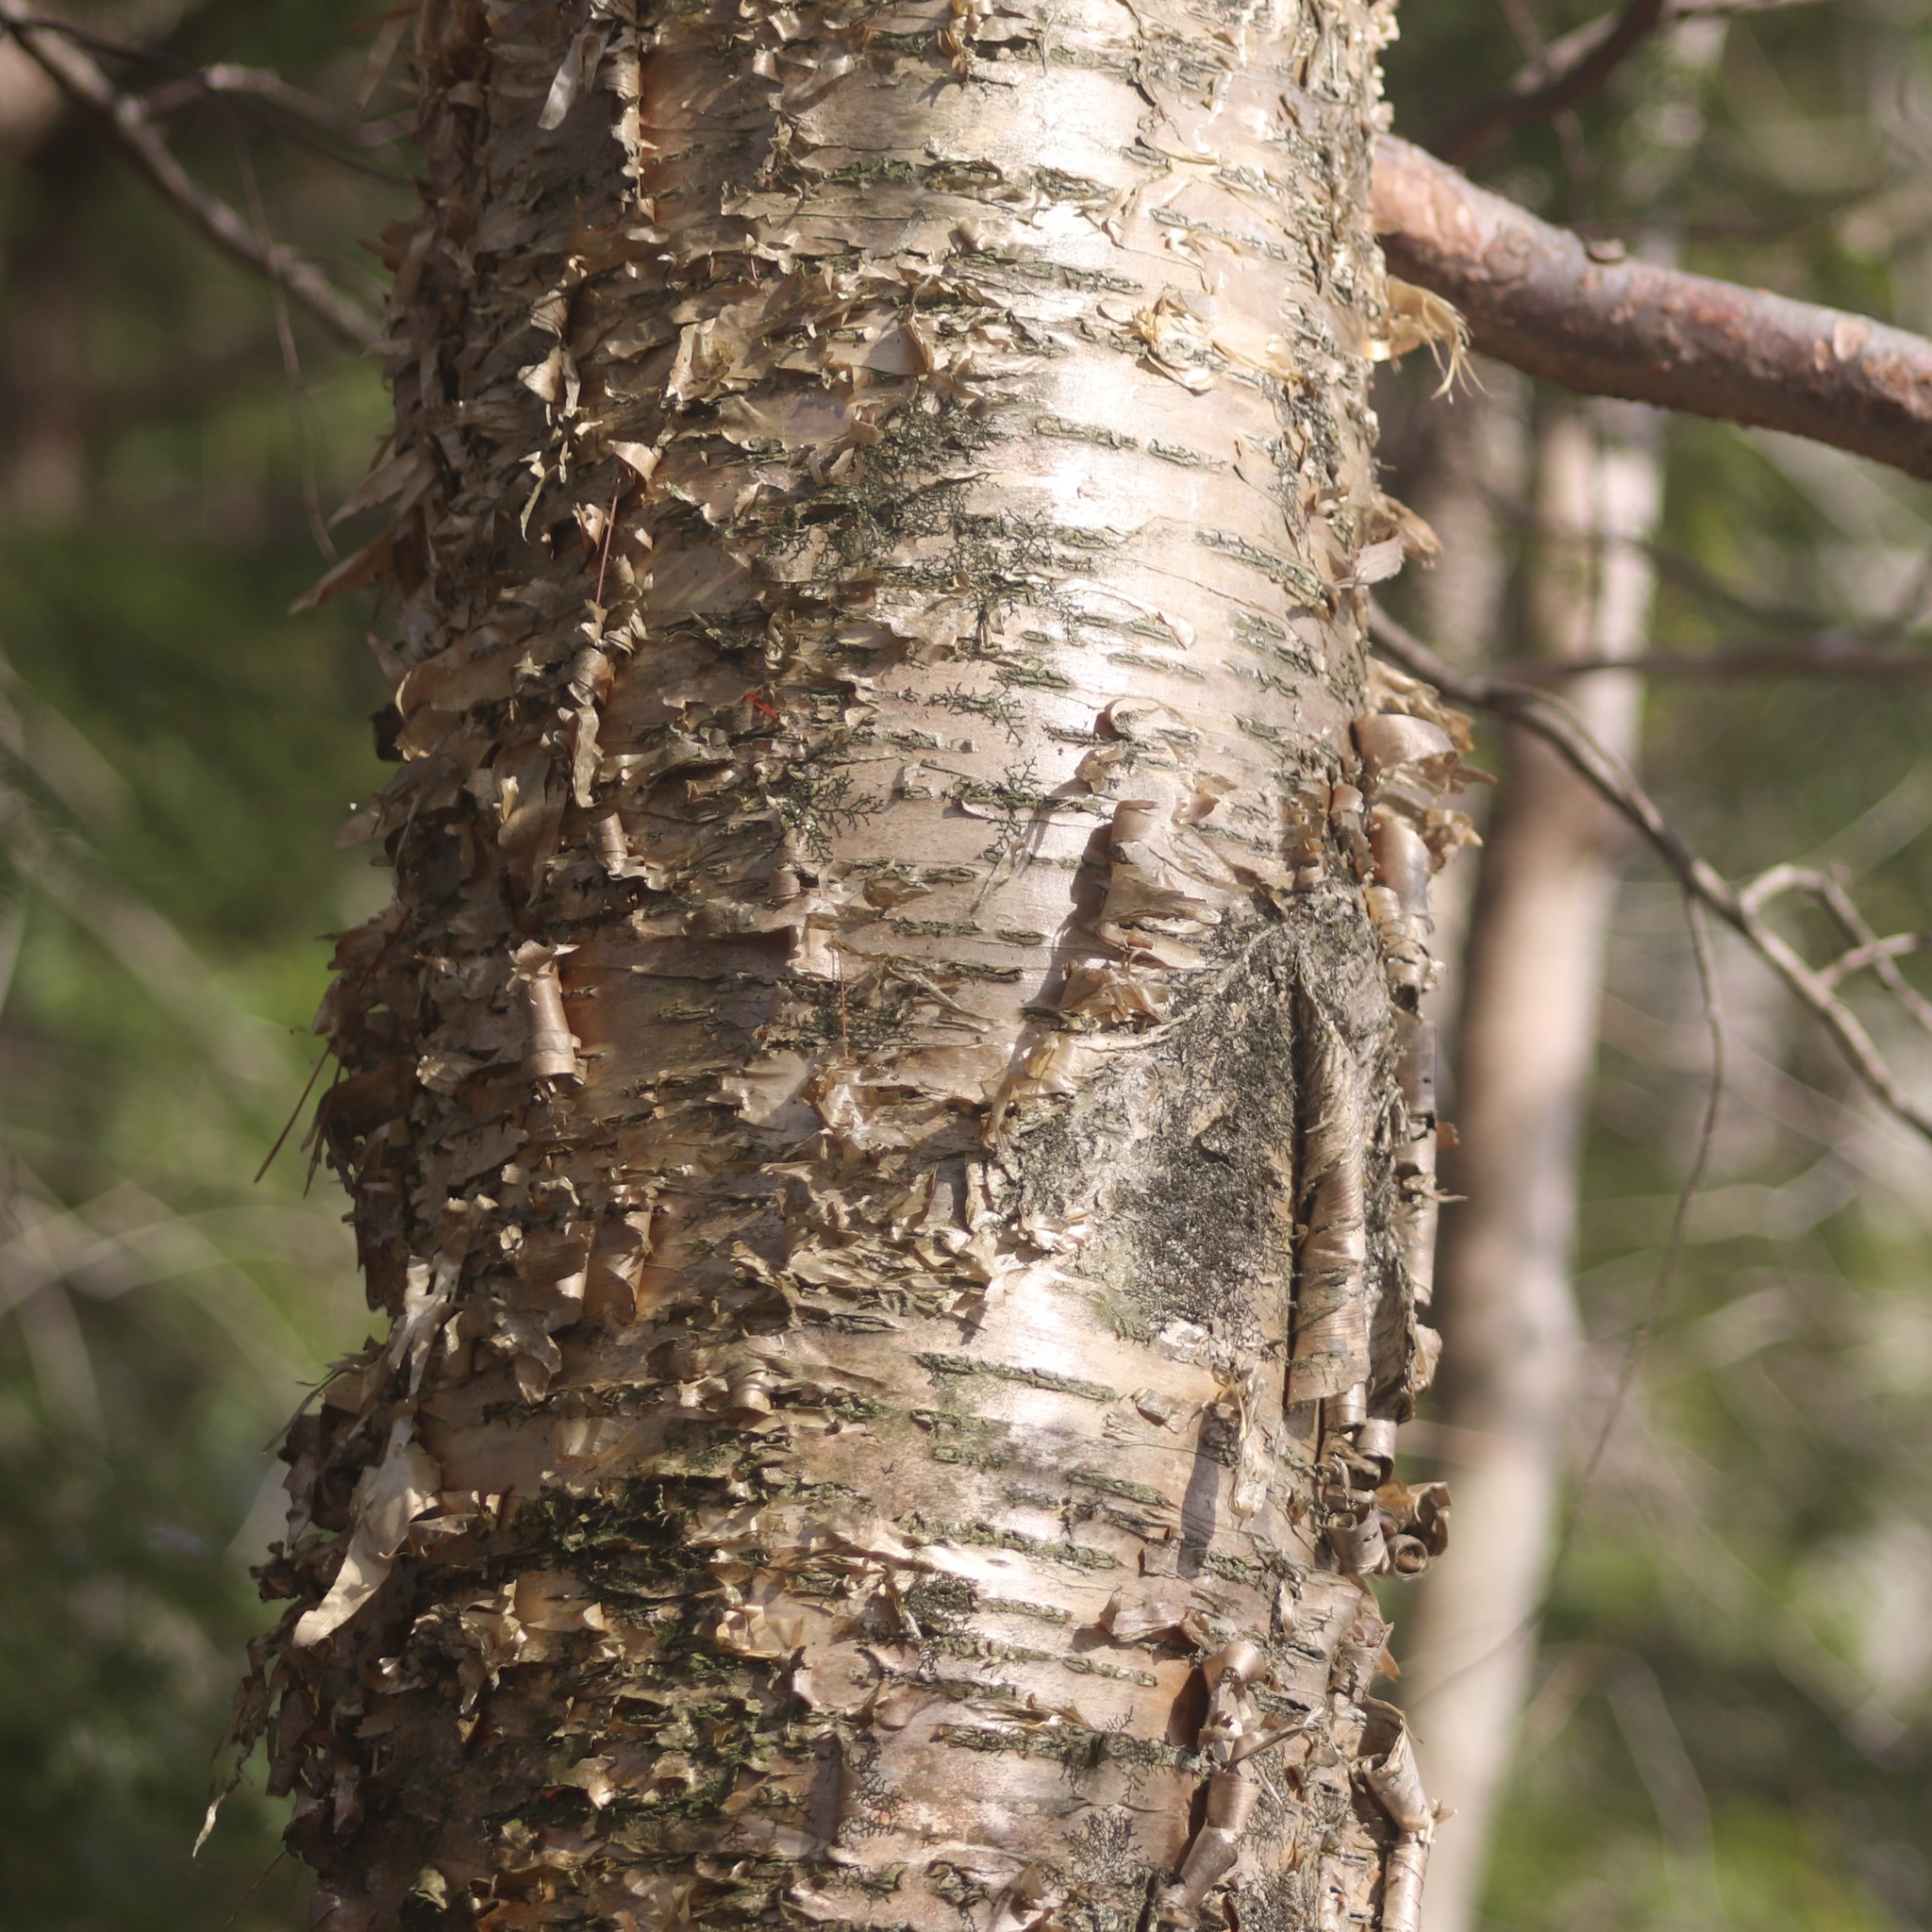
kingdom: Plantae
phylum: Tracheophyta
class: Magnoliopsida
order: Fagales
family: Betulaceae
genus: Betula
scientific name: Betula alleghaniensis
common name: Yellow birch
